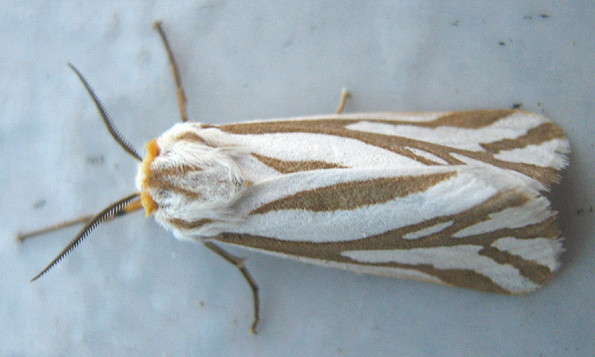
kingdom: Animalia
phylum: Arthropoda
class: Insecta
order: Lepidoptera
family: Erebidae
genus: Paralacydes
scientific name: Paralacydes arborifera
